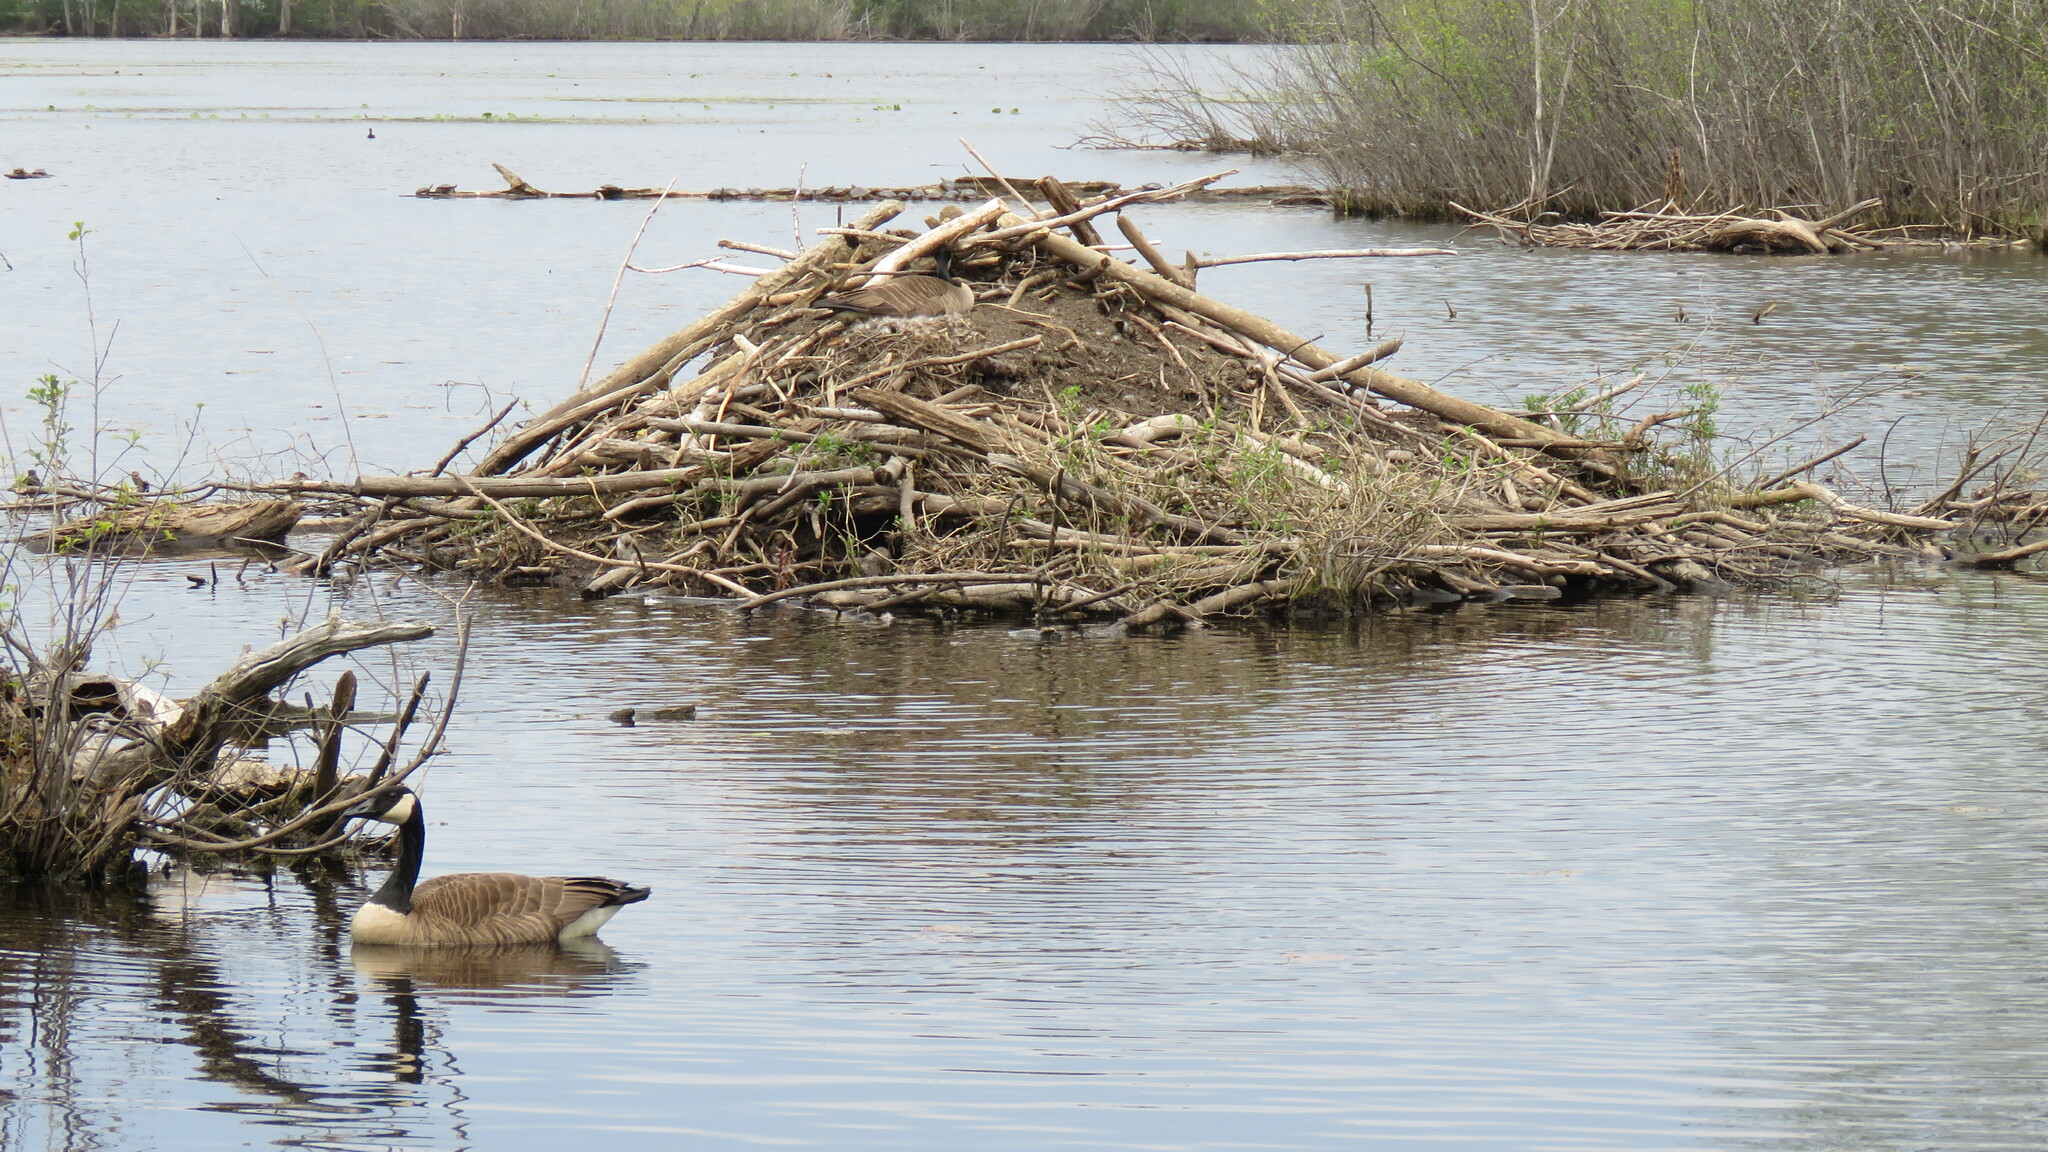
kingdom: Animalia
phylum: Chordata
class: Mammalia
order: Rodentia
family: Castoridae
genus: Castor
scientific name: Castor canadensis
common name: American beaver
